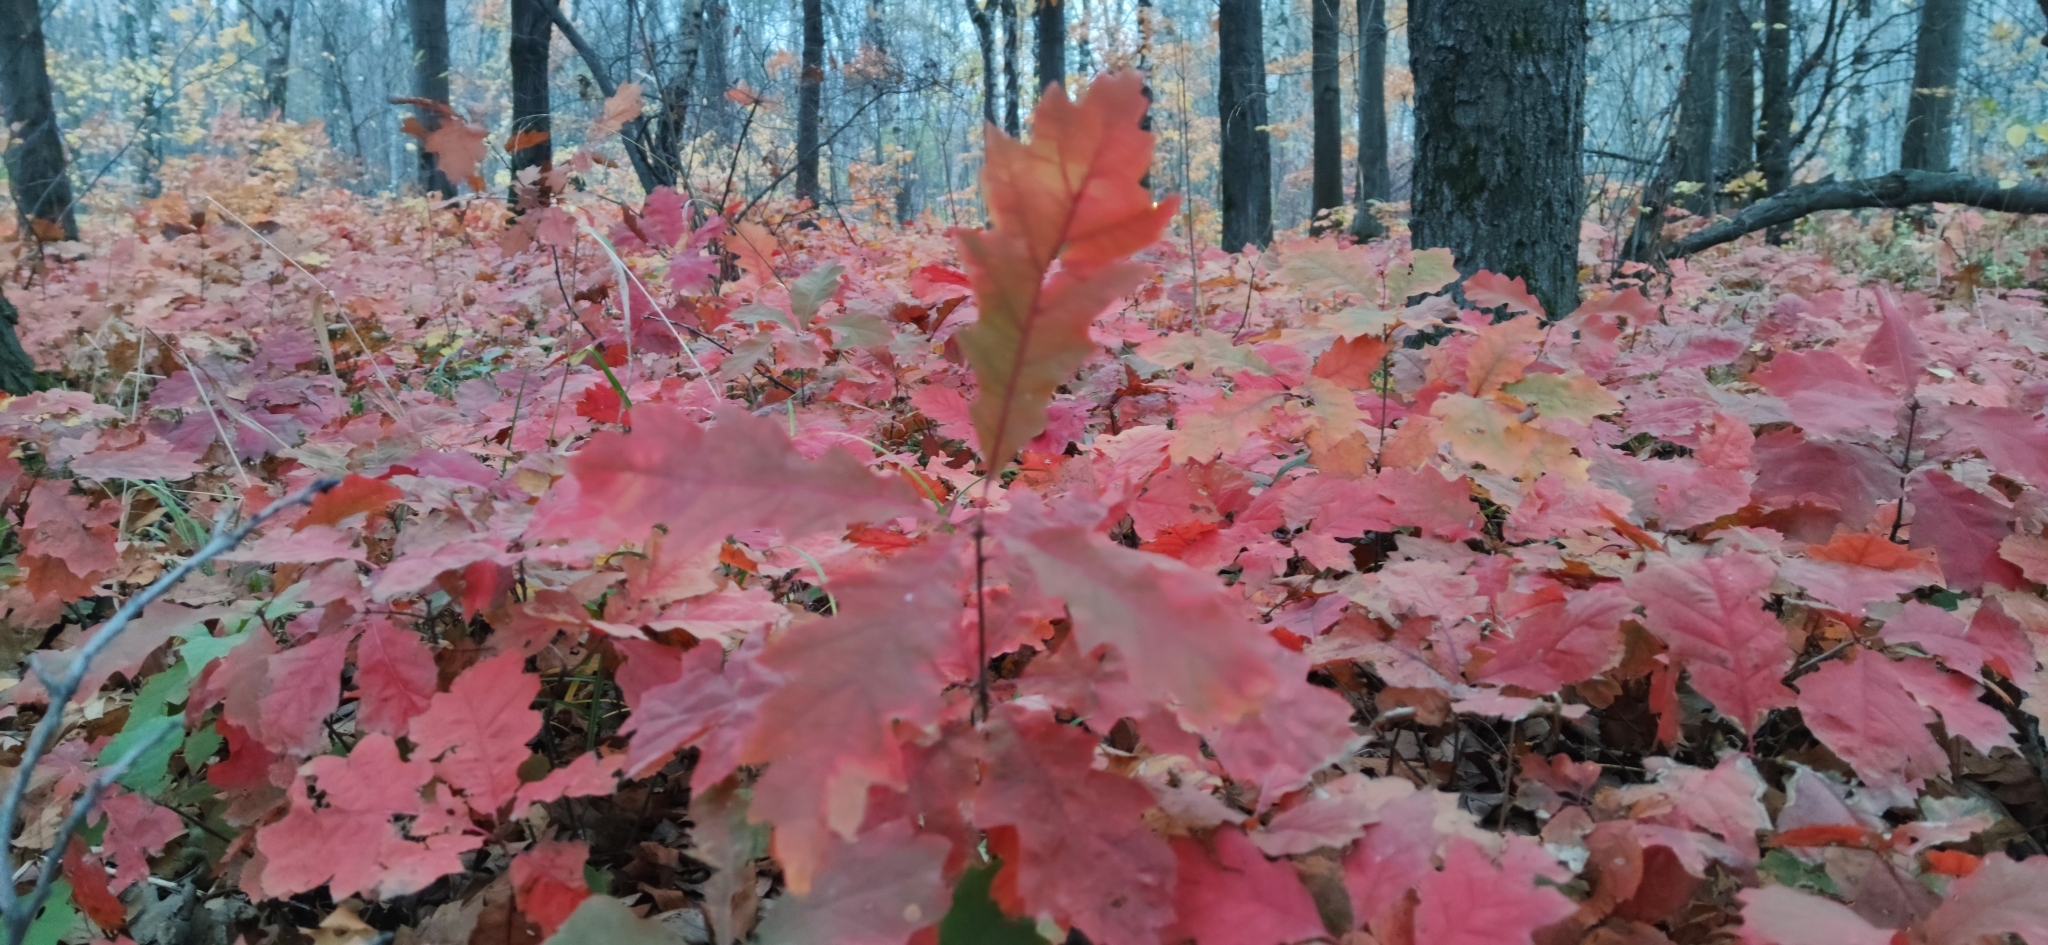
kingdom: Plantae
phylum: Tracheophyta
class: Magnoliopsida
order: Fagales
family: Fagaceae
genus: Quercus
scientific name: Quercus rubra
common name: Red oak
